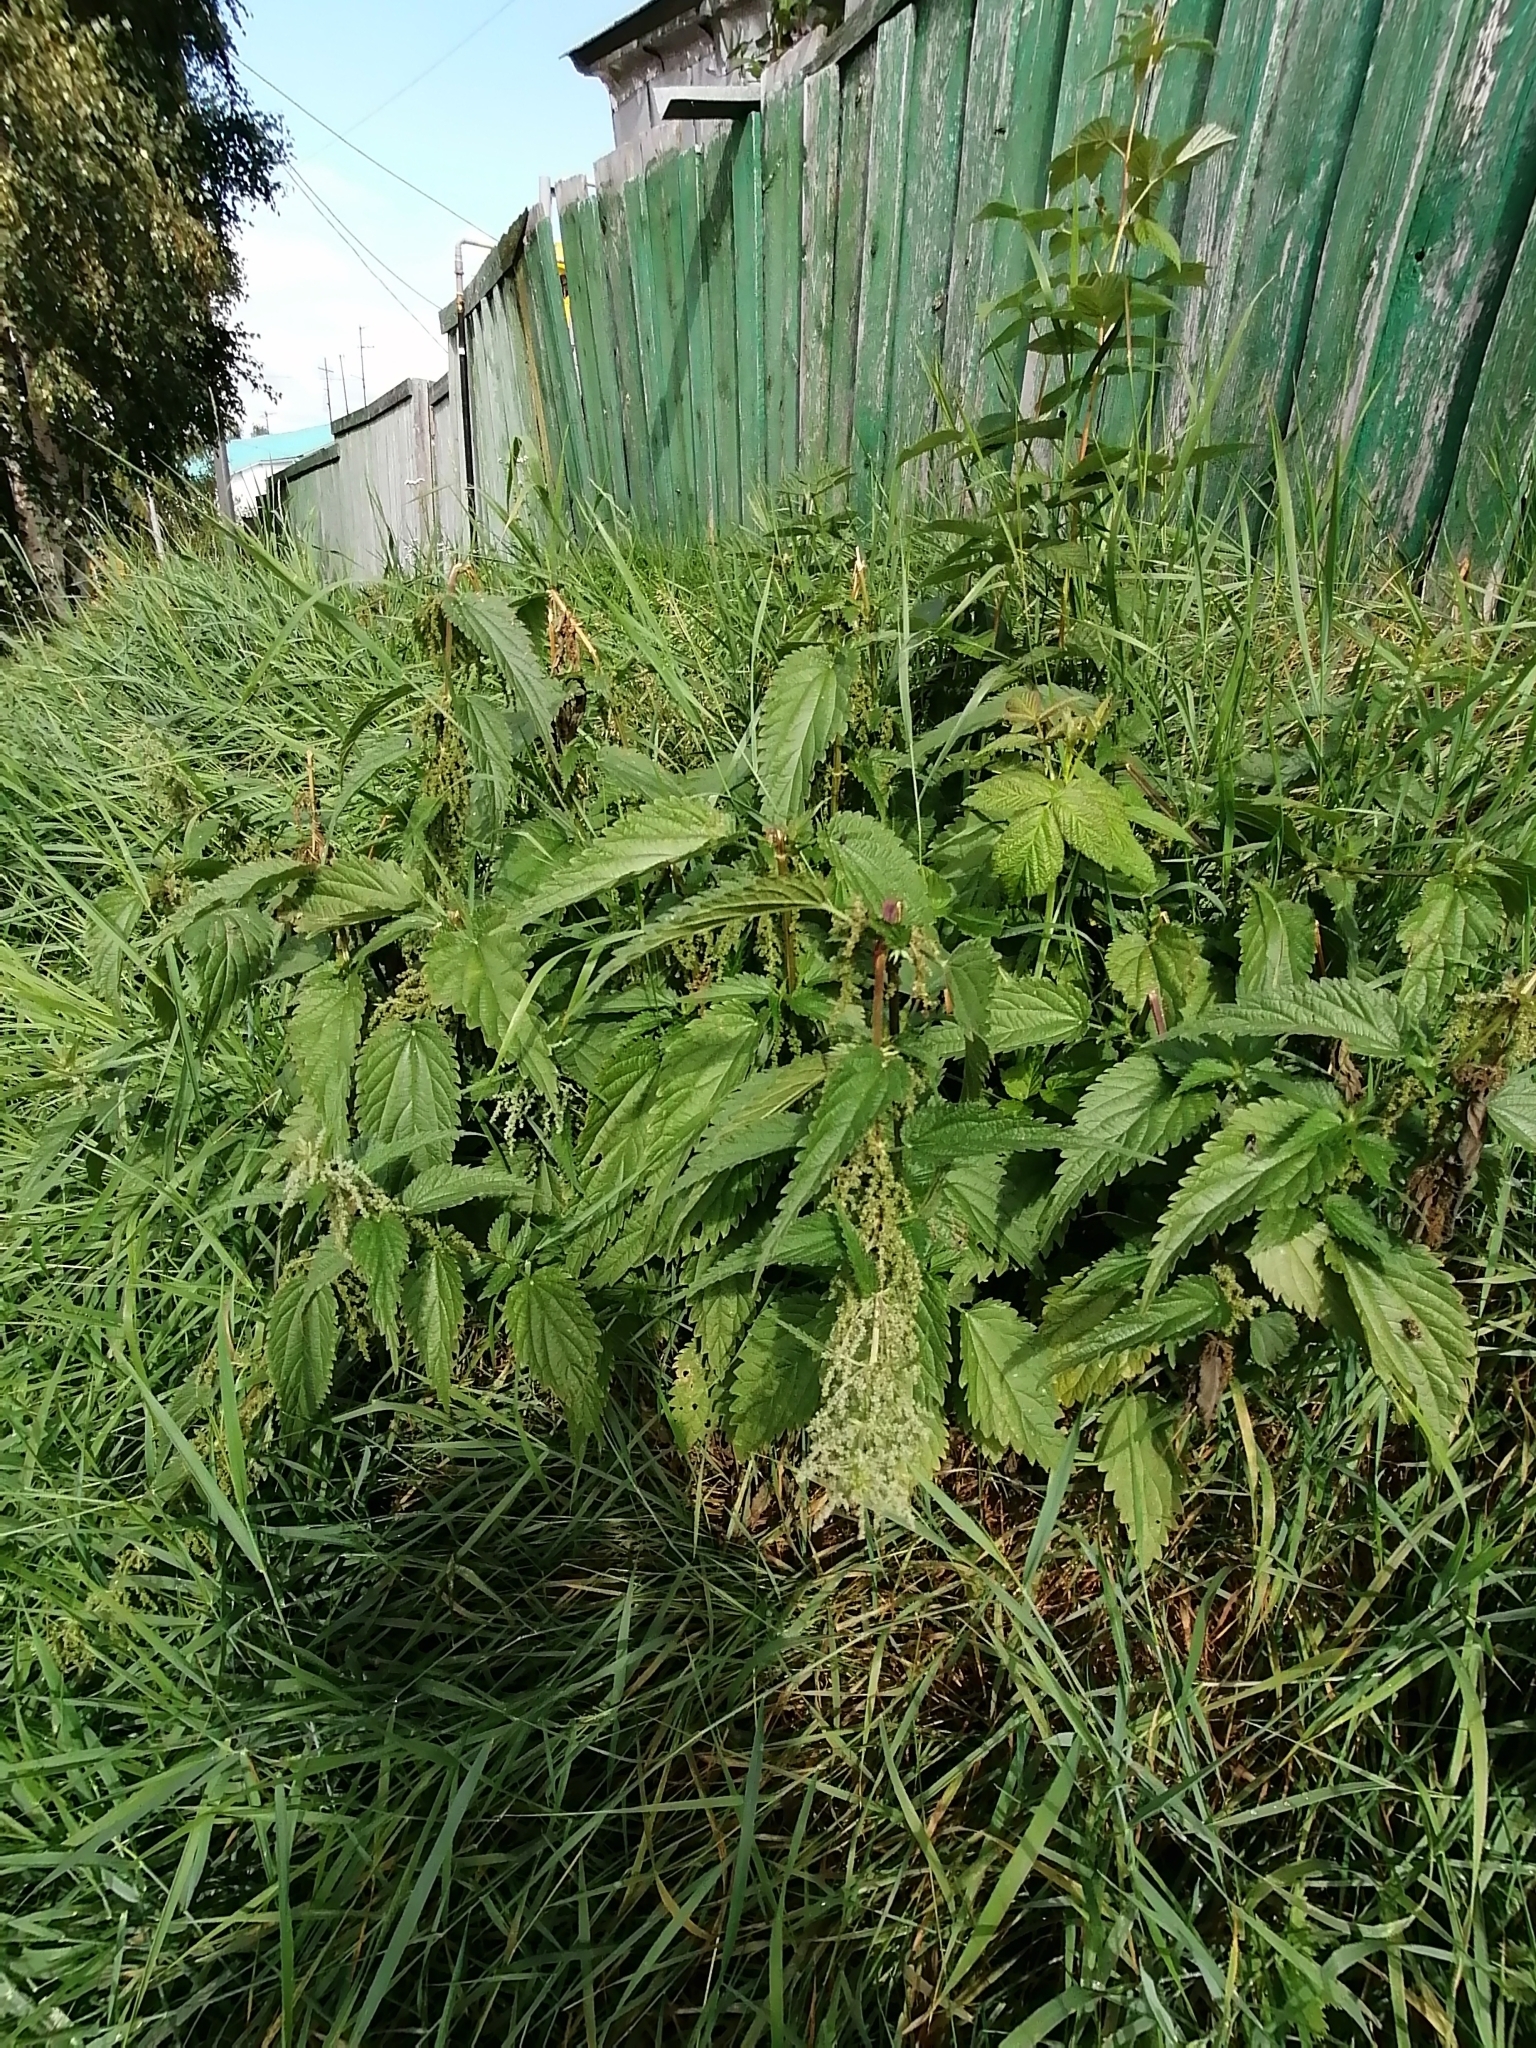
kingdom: Plantae
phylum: Tracheophyta
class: Magnoliopsida
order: Rosales
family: Urticaceae
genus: Urtica
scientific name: Urtica dioica
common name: Common nettle
